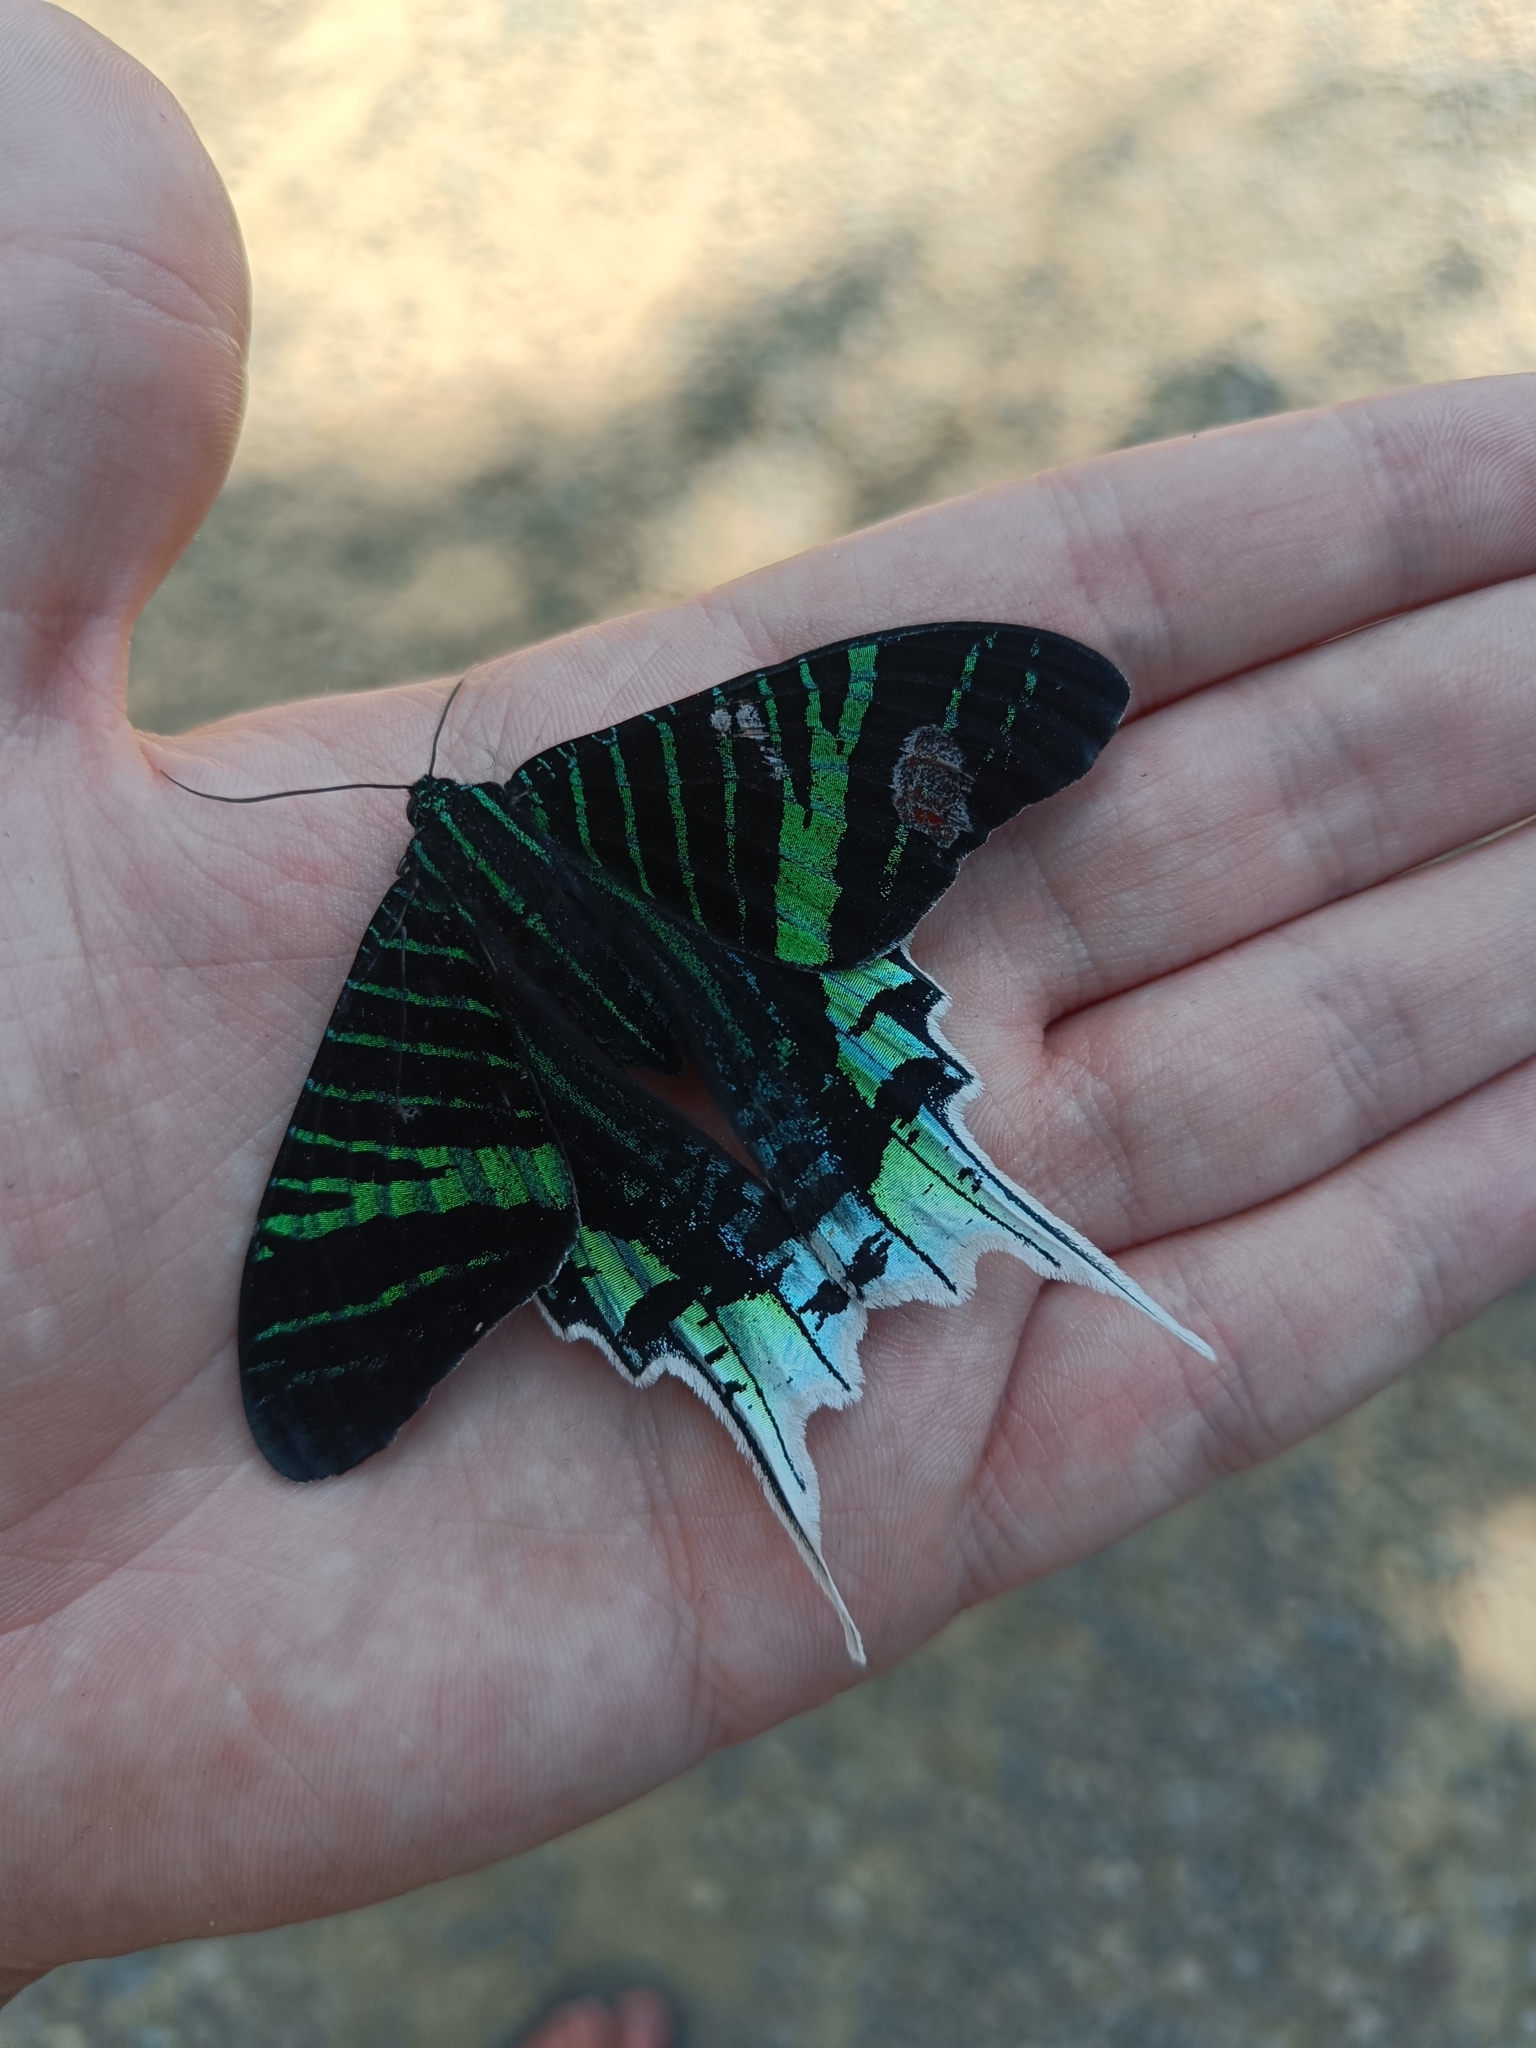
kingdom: Animalia
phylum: Arthropoda
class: Insecta
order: Lepidoptera
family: Uraniidae
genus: Urania
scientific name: Urania leilus
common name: Peacock moth
